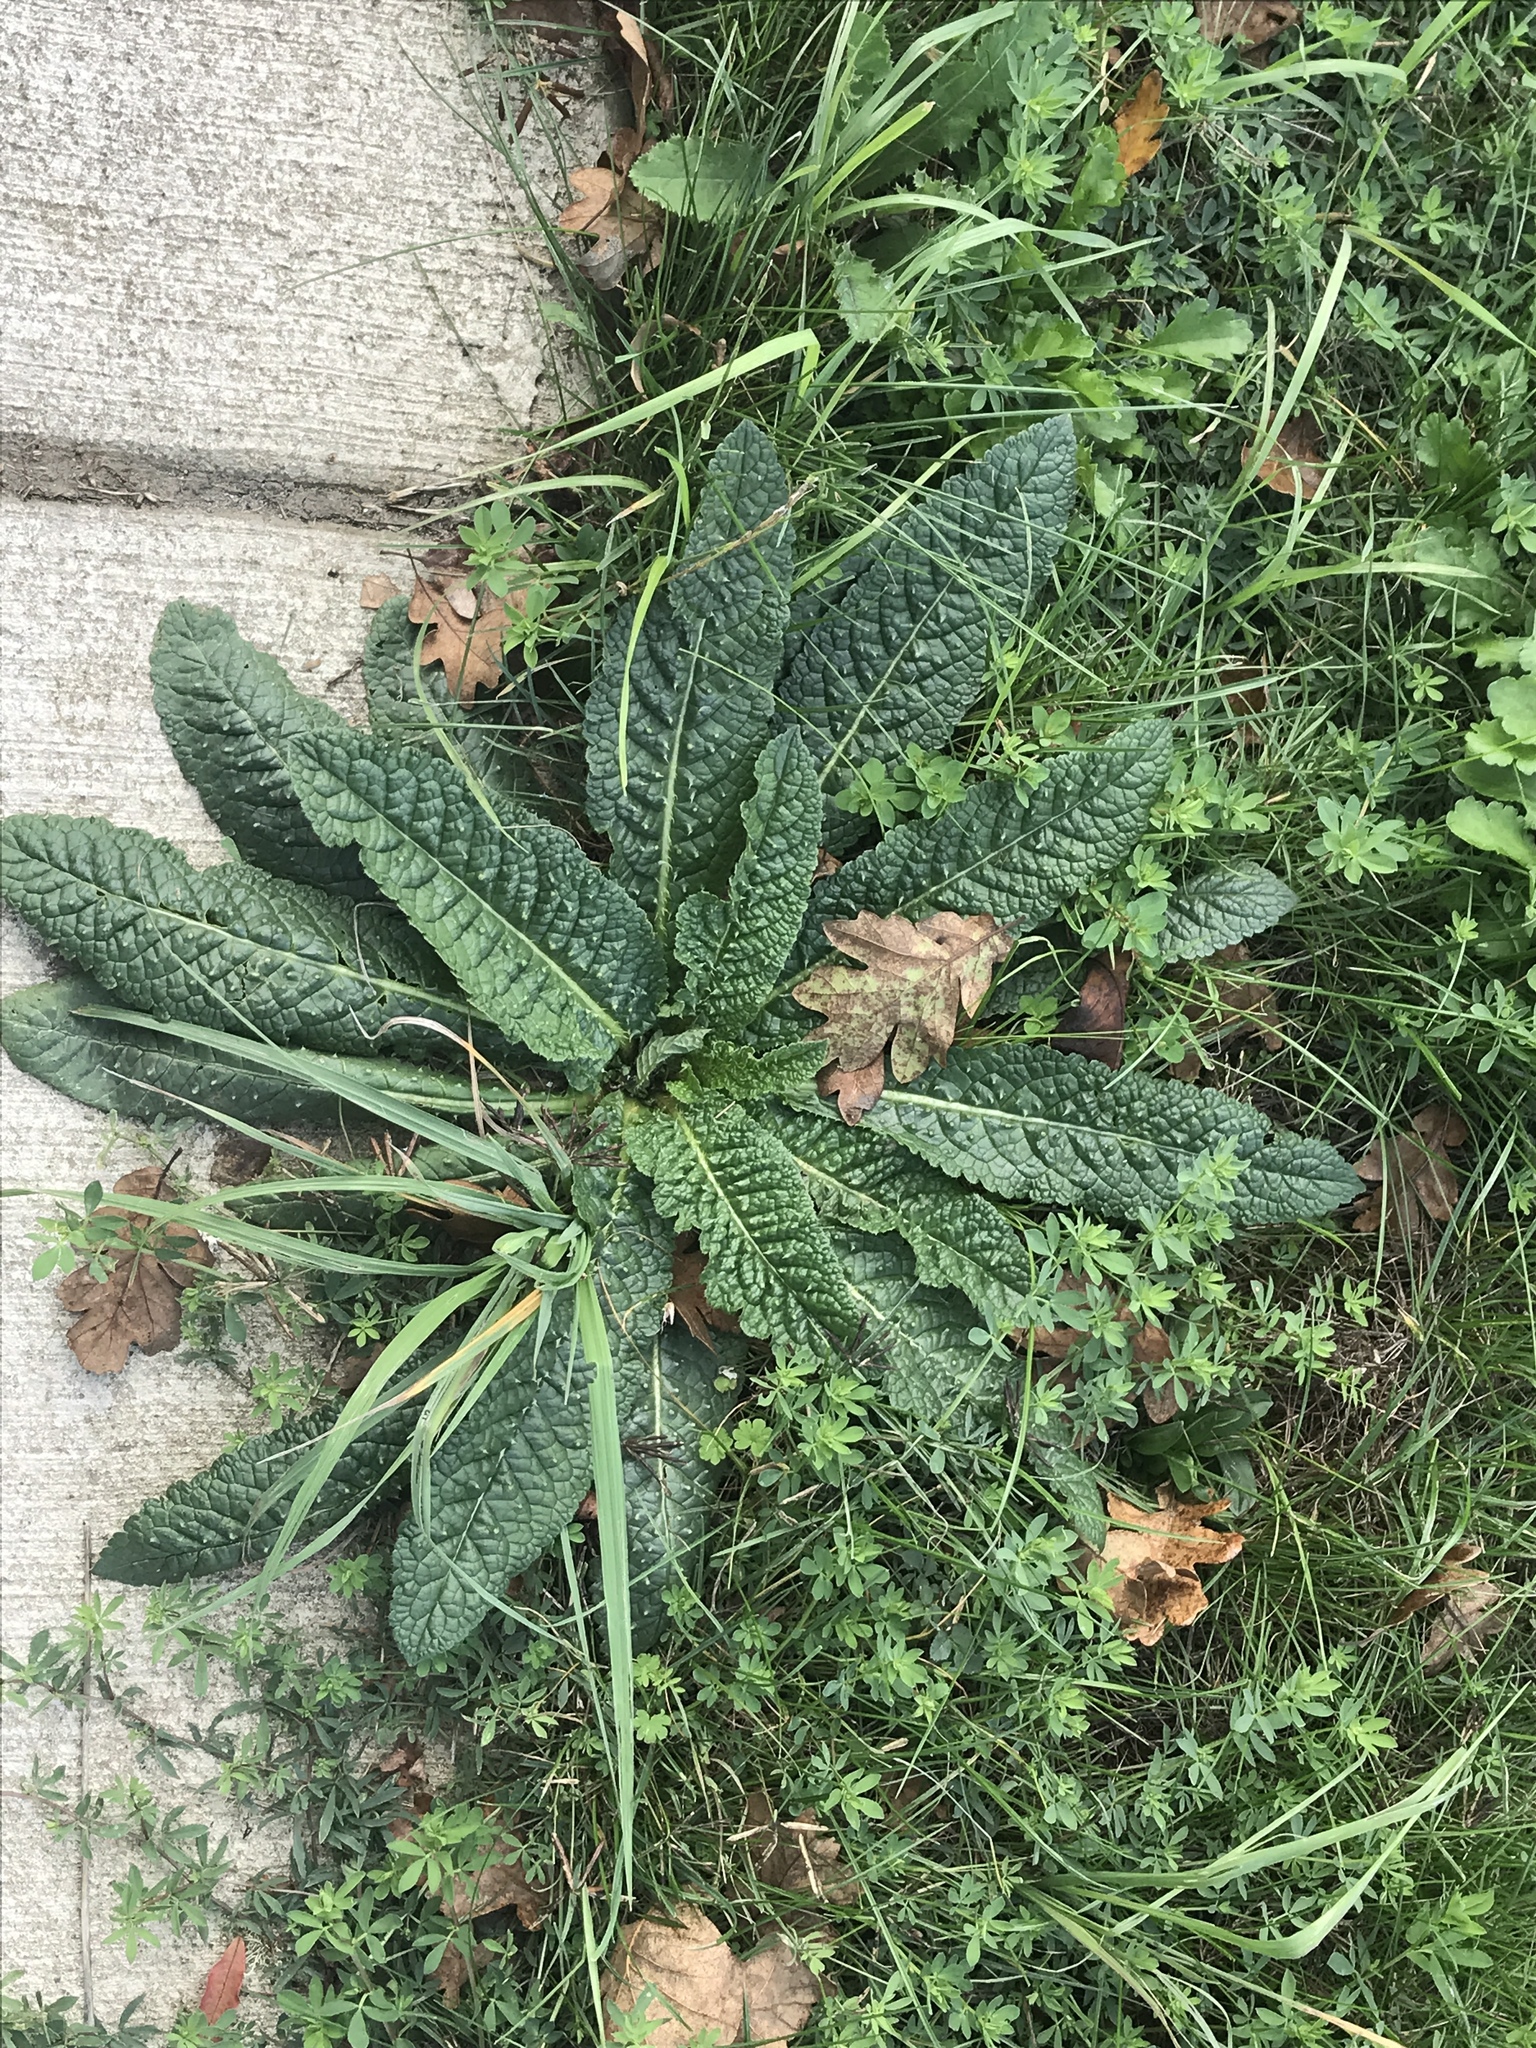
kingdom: Plantae
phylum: Tracheophyta
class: Magnoliopsida
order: Dipsacales
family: Caprifoliaceae
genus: Dipsacus
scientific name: Dipsacus fullonum
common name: Teasel
